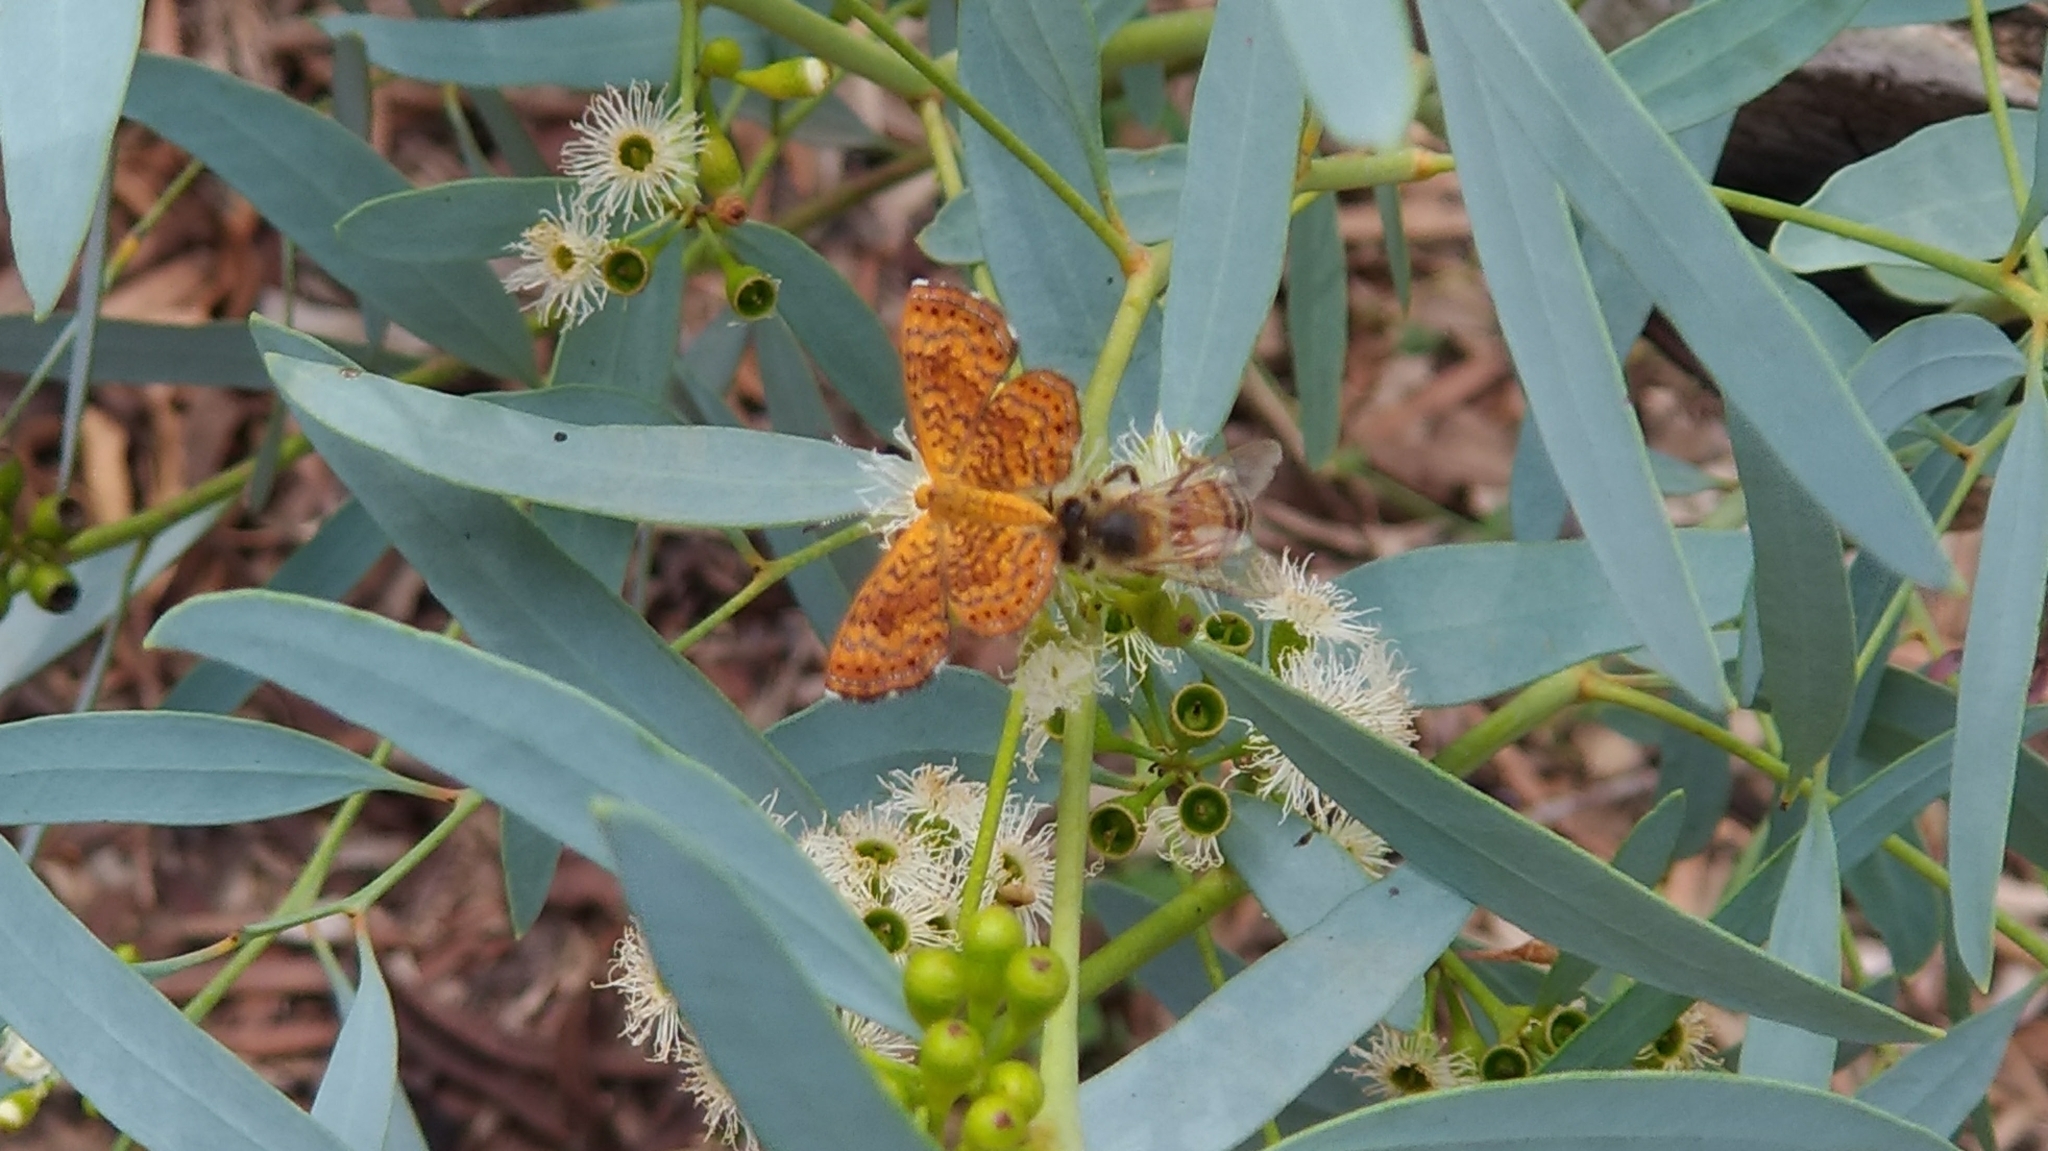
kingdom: Animalia
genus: Calephelis
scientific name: Calephelis nemesis
